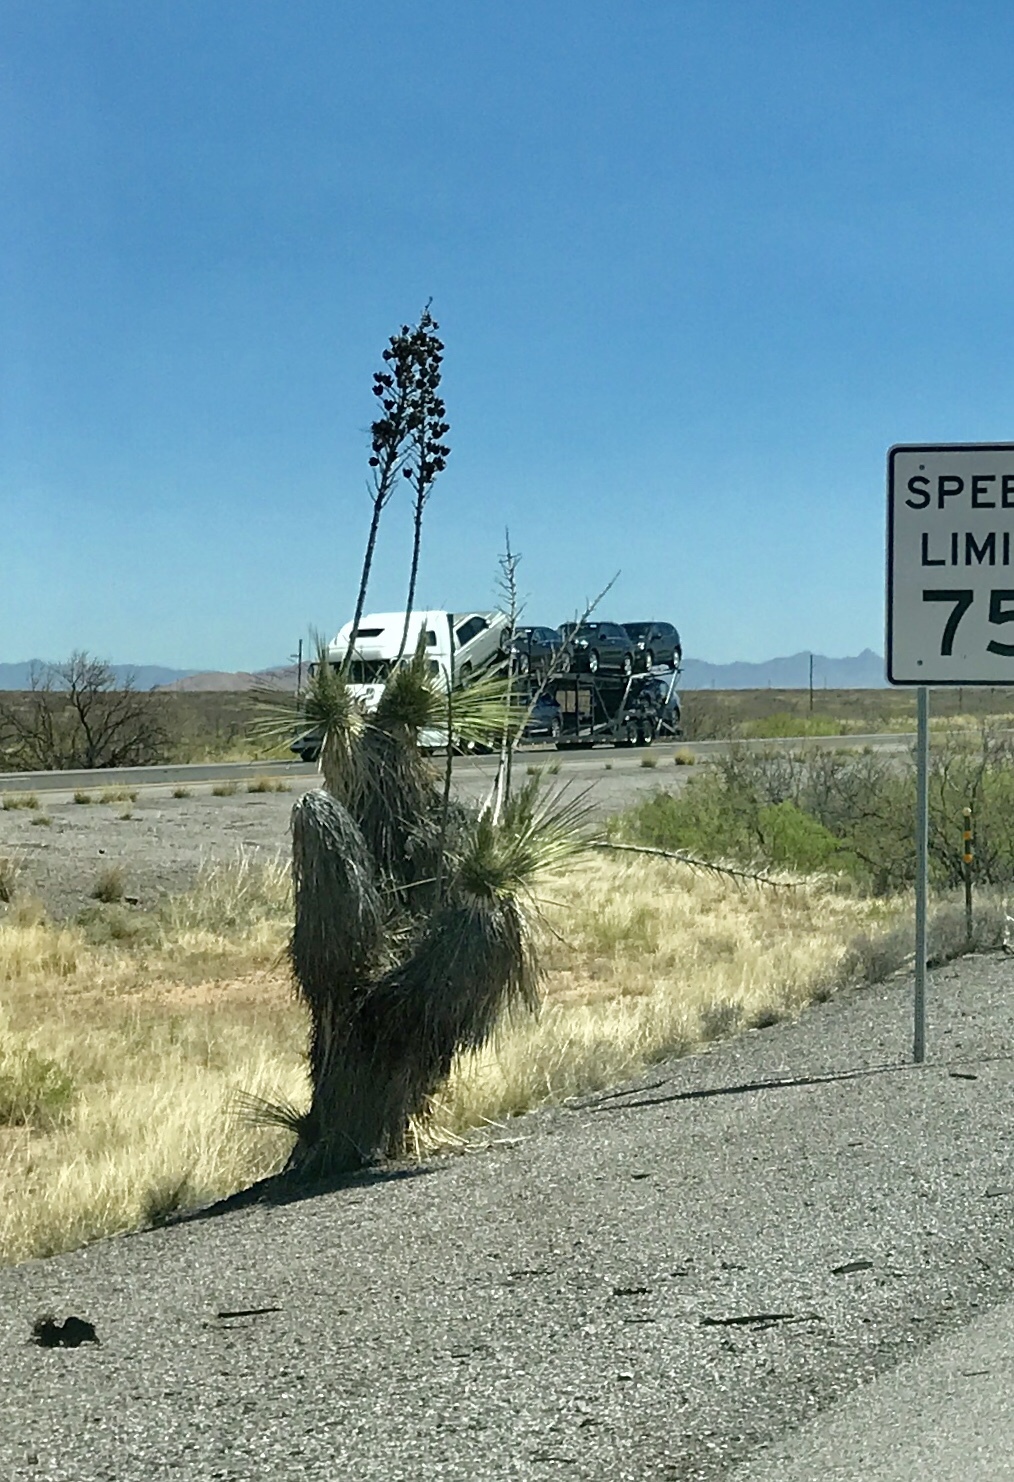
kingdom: Plantae
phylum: Tracheophyta
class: Liliopsida
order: Asparagales
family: Asparagaceae
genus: Yucca
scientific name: Yucca elata
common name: Palmella
